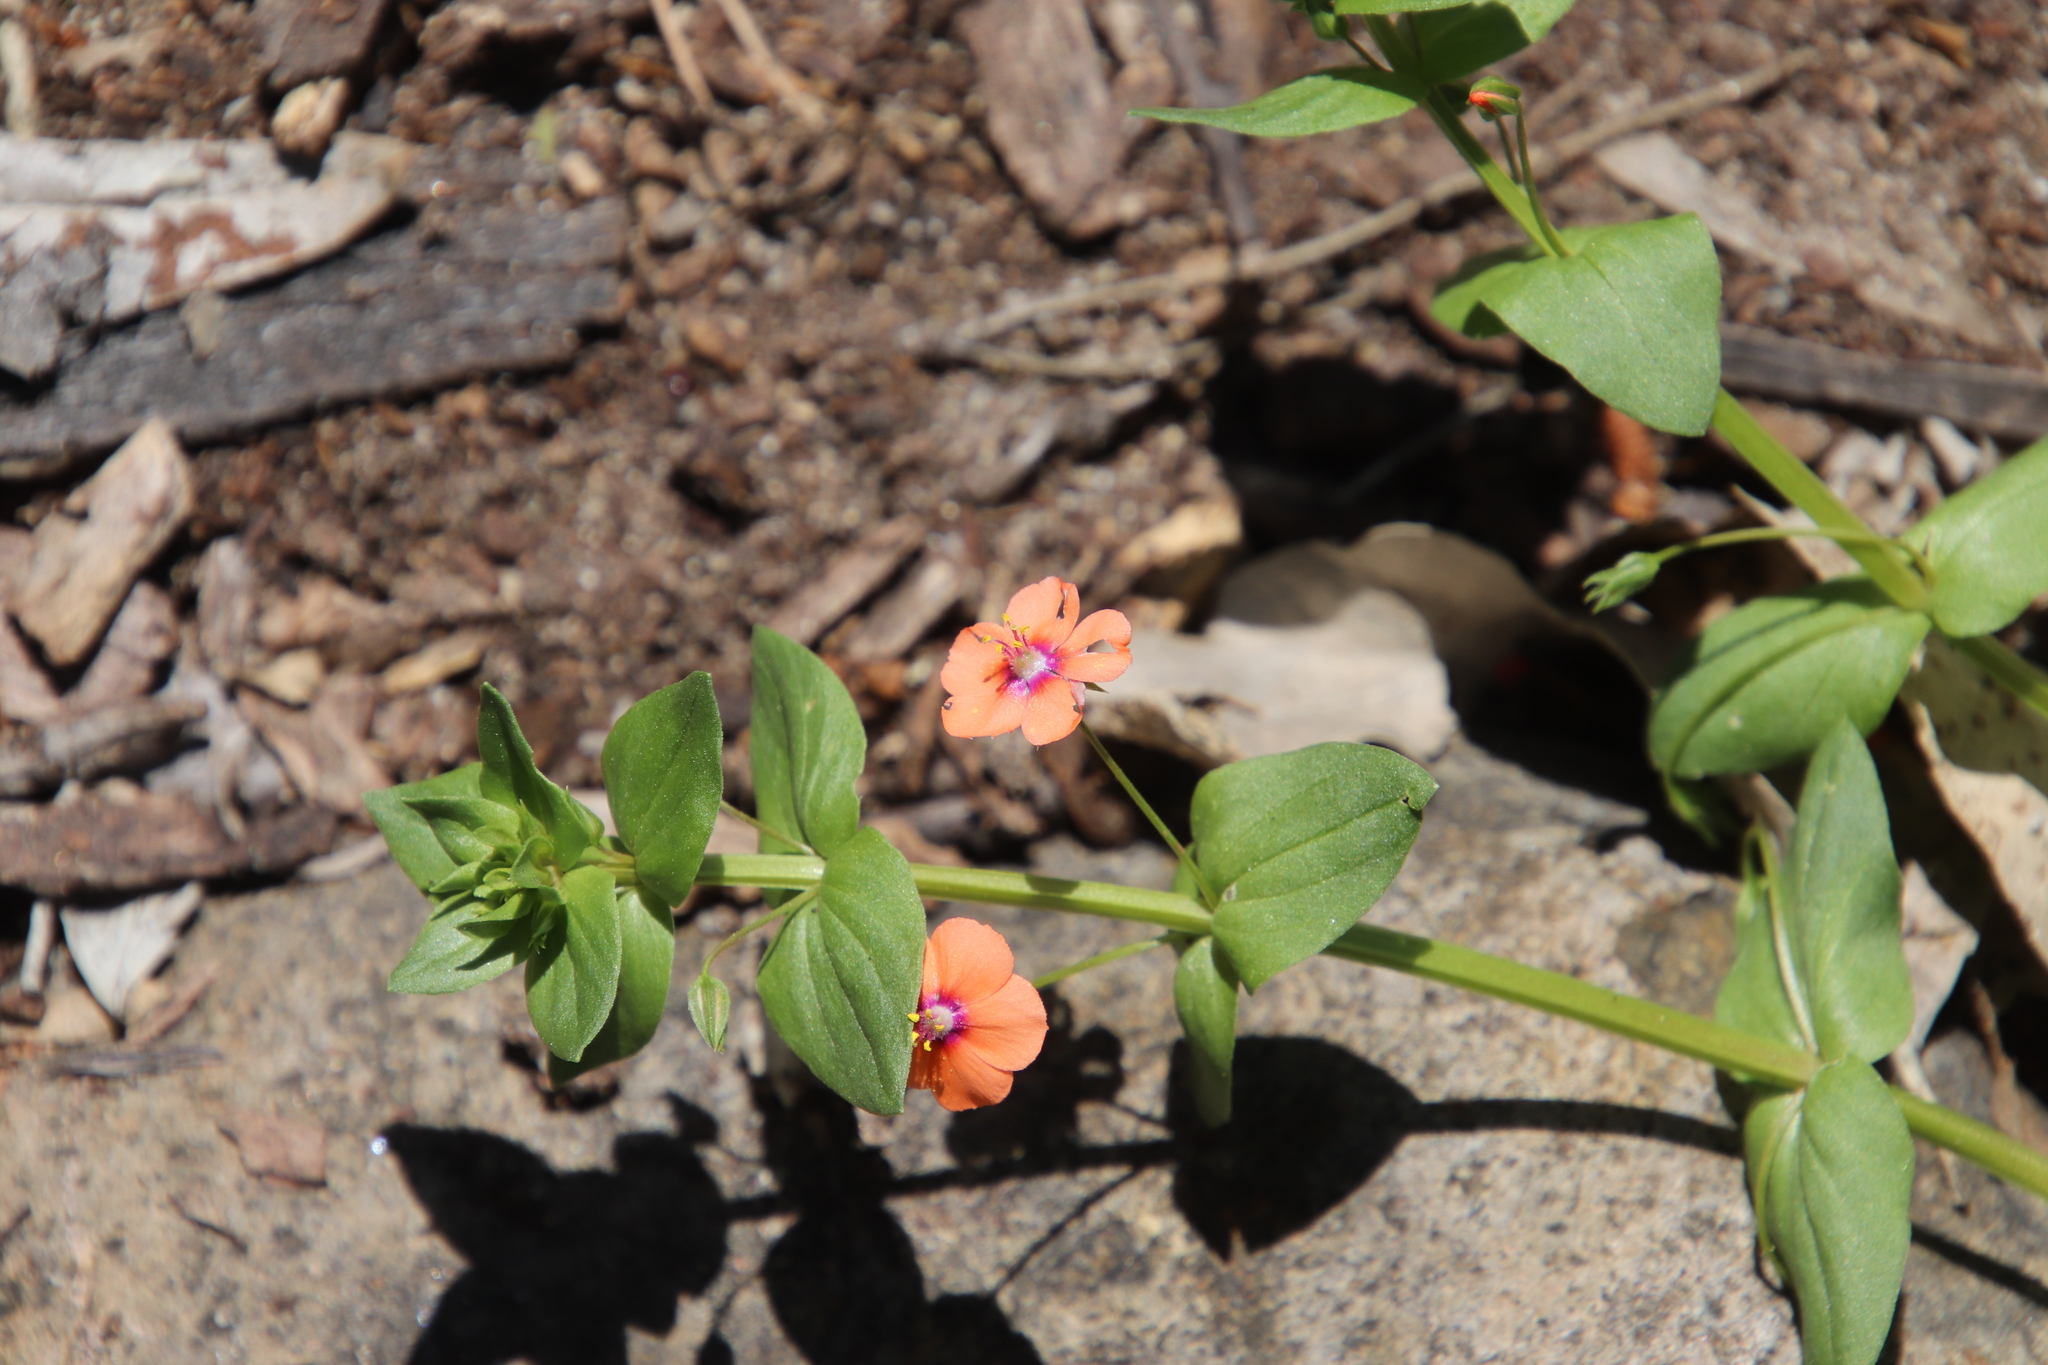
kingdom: Plantae
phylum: Tracheophyta
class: Magnoliopsida
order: Ericales
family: Primulaceae
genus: Lysimachia
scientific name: Lysimachia arvensis
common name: Scarlet pimpernel
